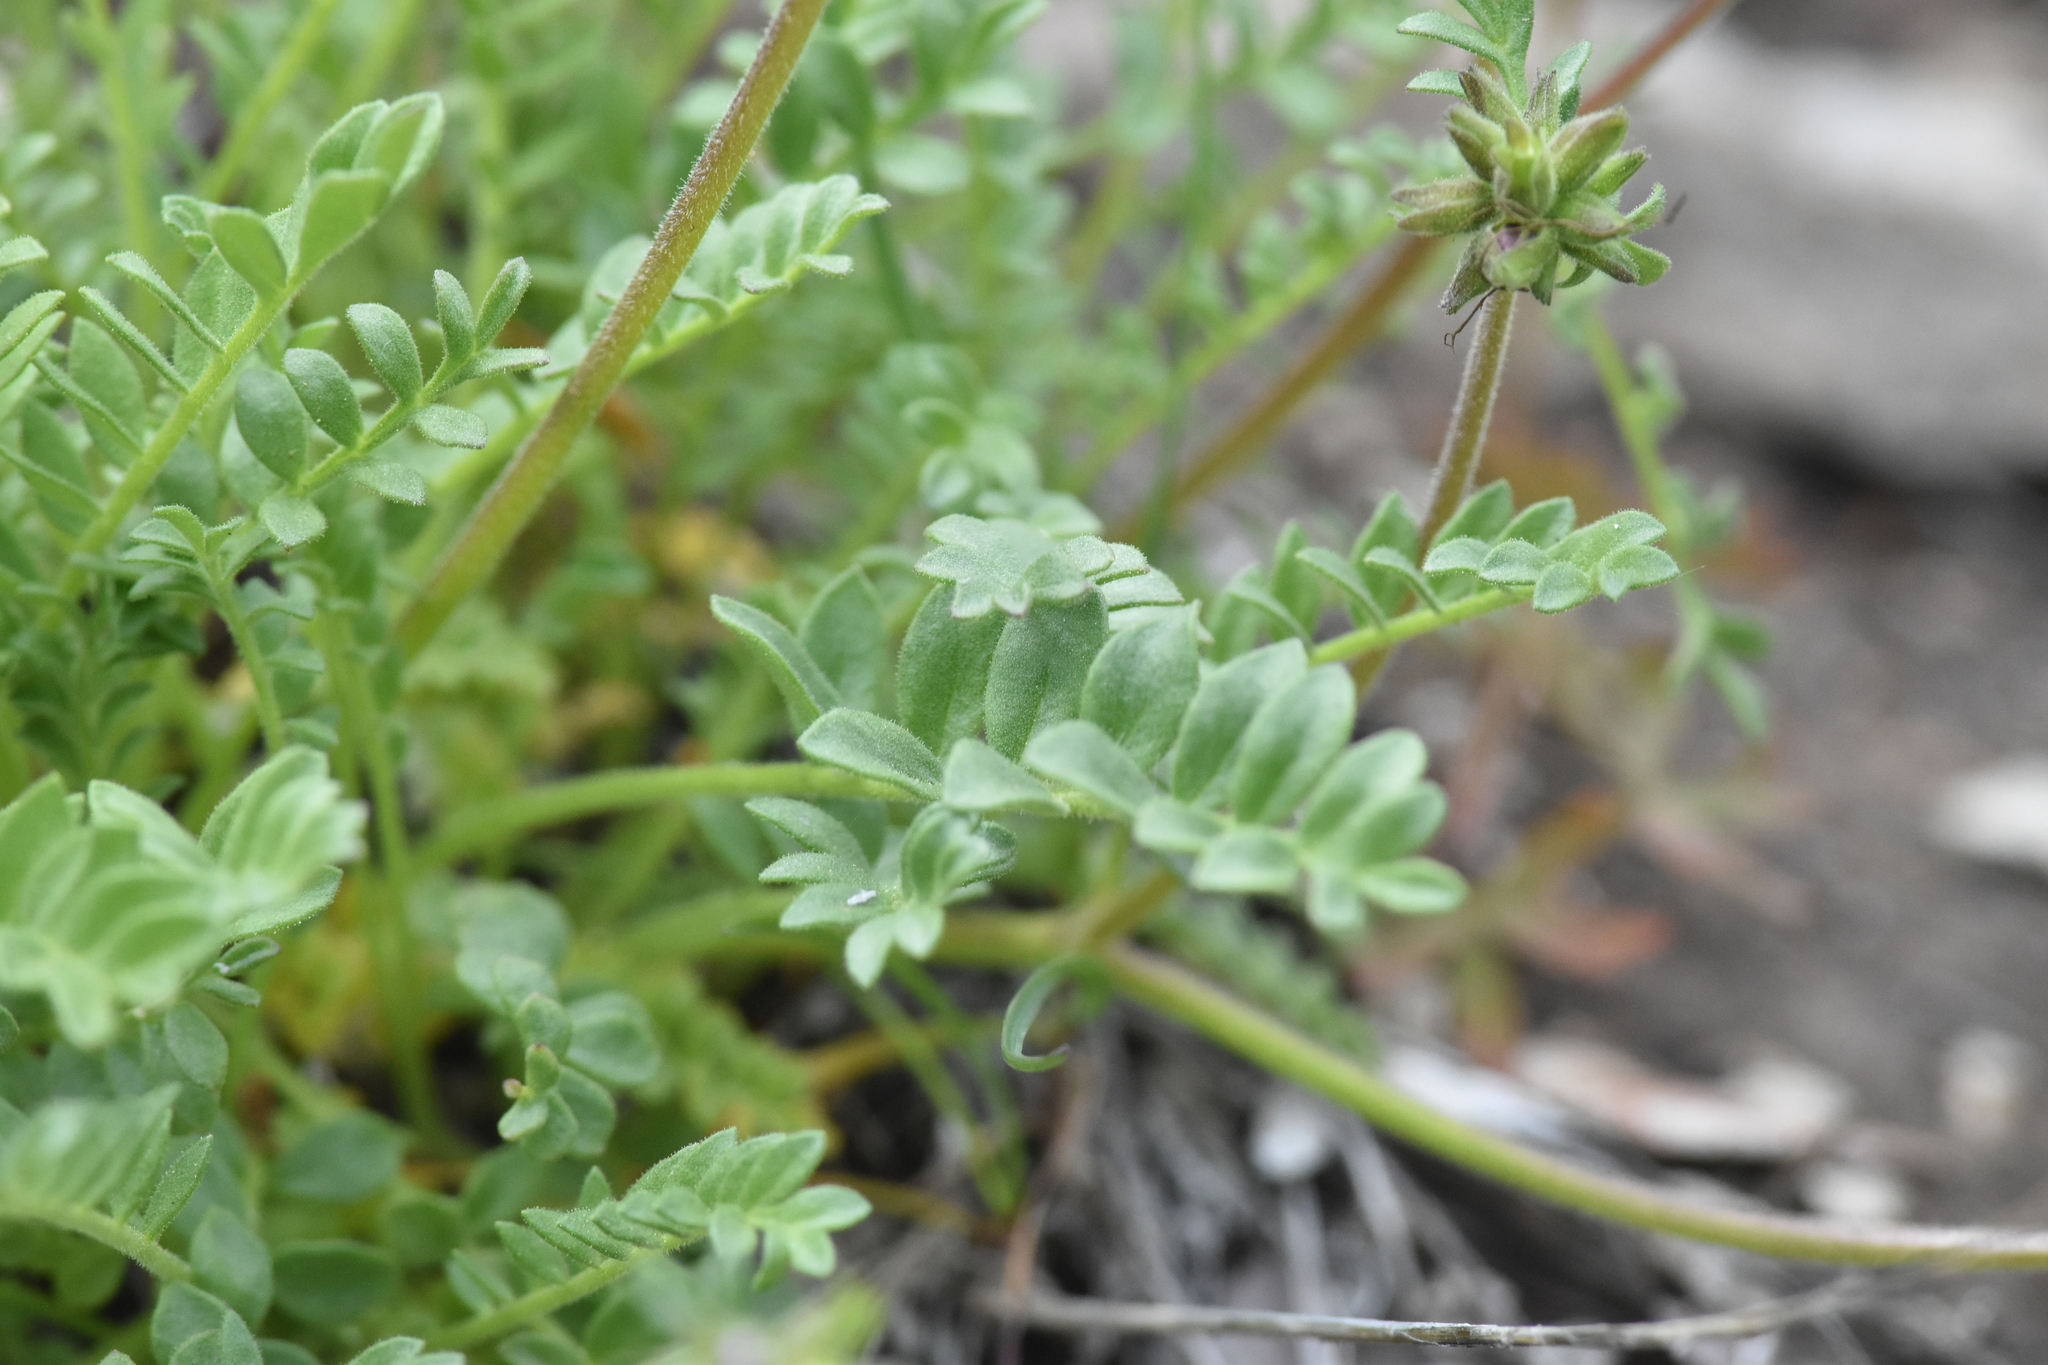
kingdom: Plantae
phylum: Tracheophyta
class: Magnoliopsida
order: Ericales
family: Polemoniaceae
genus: Polemonium
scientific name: Polemonium pulcherrimum
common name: Short jacob's-ladder
